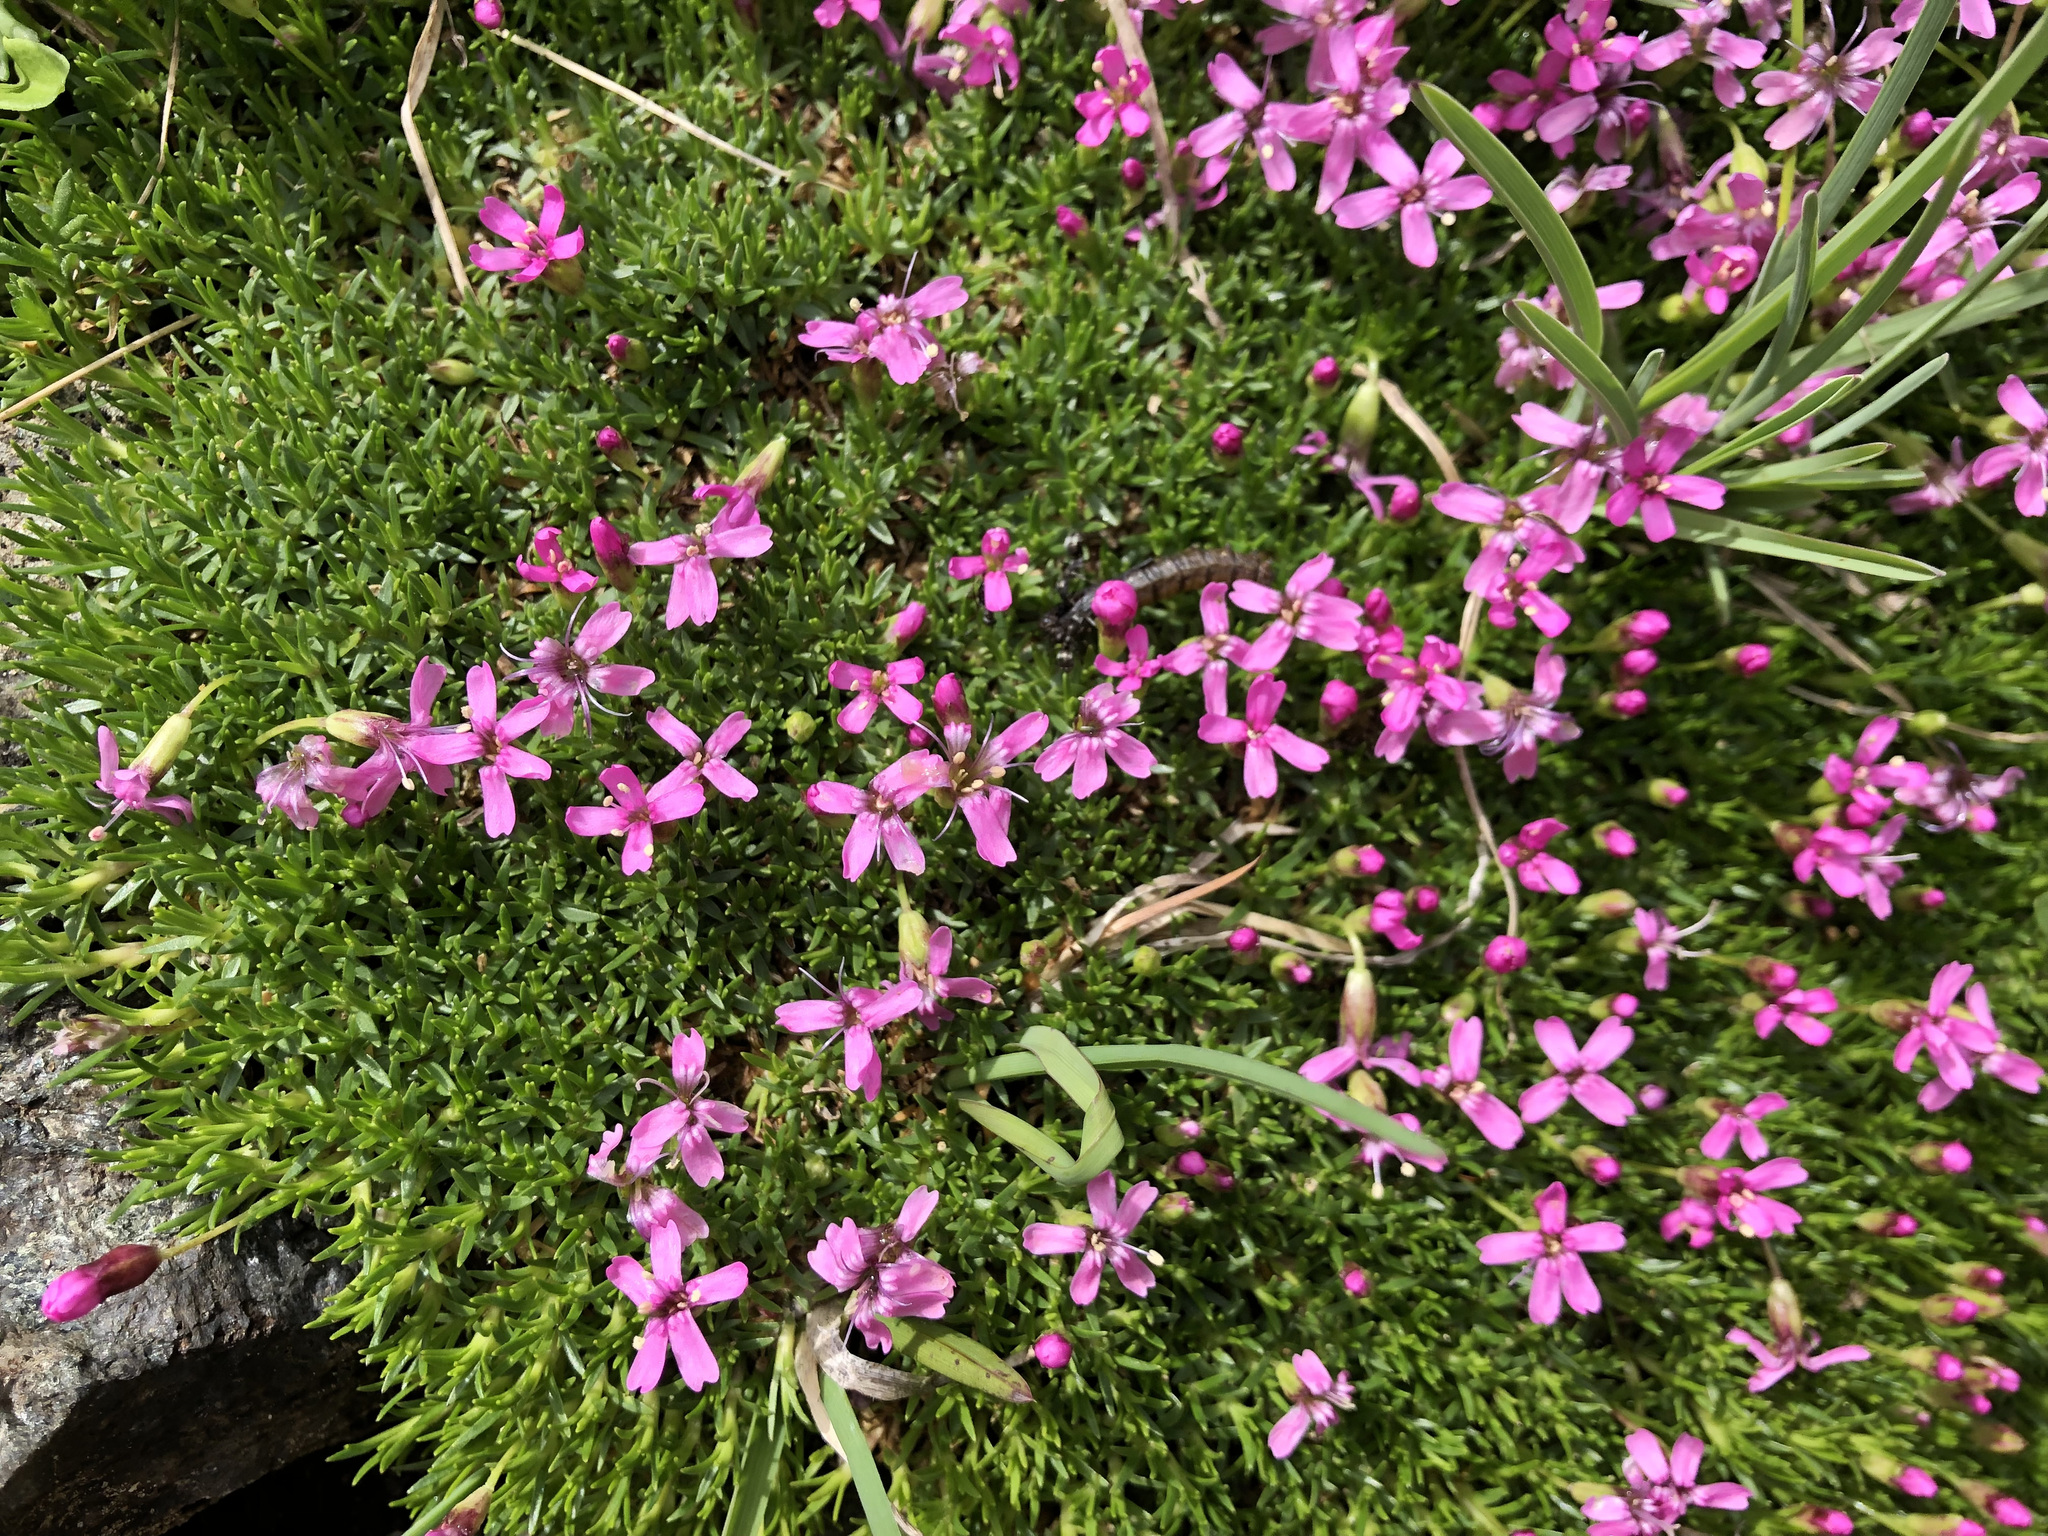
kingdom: Plantae
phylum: Tracheophyta
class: Magnoliopsida
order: Caryophyllales
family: Caryophyllaceae
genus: Silene
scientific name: Silene acaulis
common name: Moss campion
